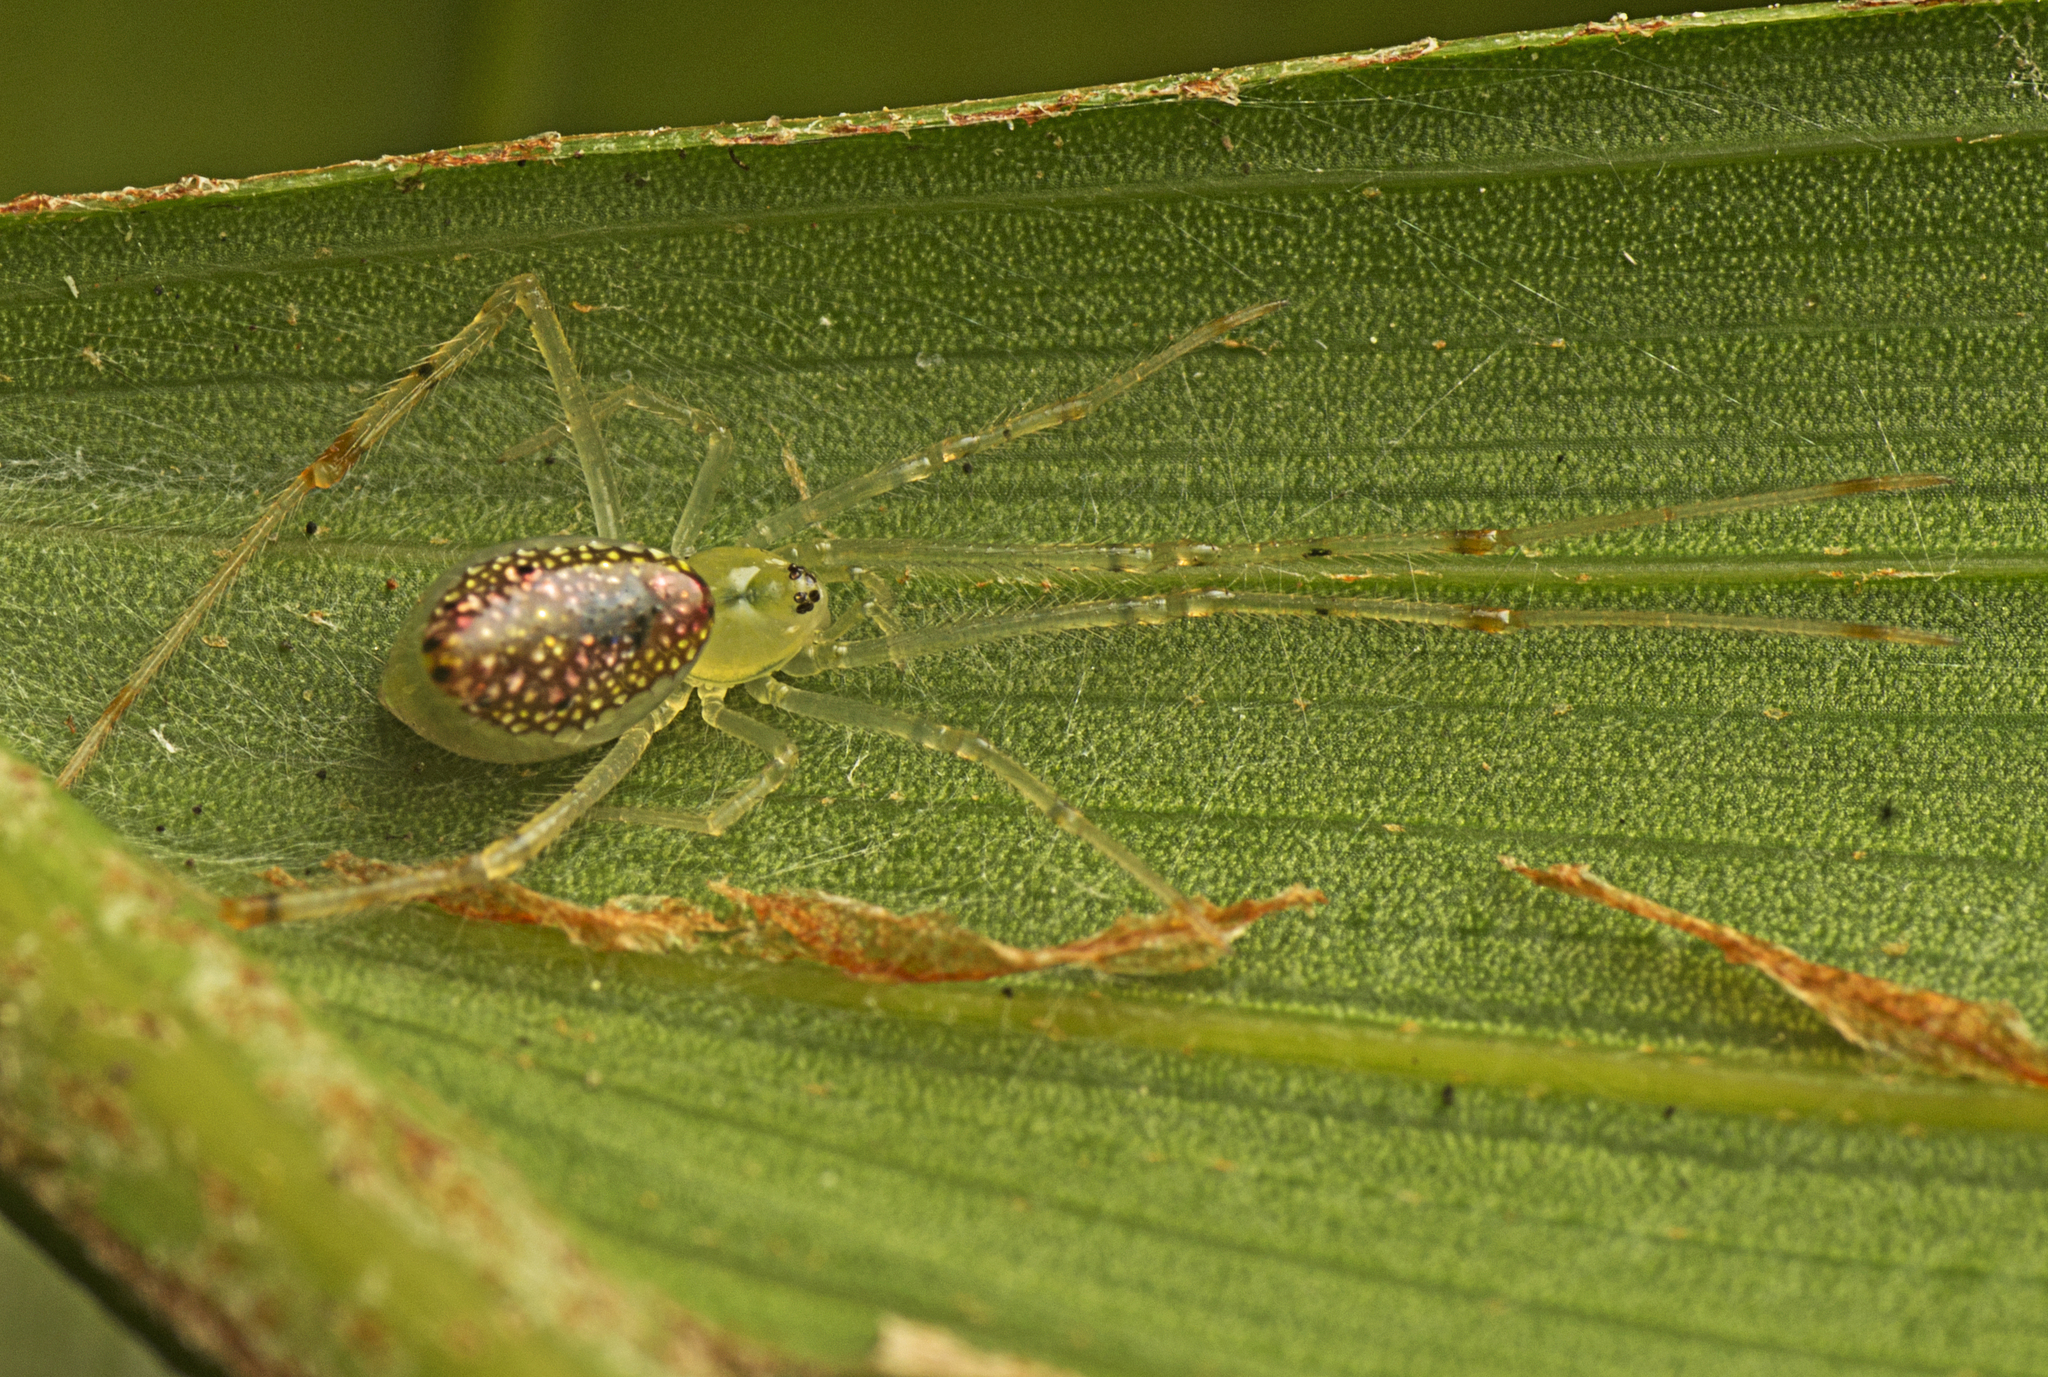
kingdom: Animalia
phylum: Arthropoda
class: Arachnida
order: Araneae
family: Theridiidae
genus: Thwaitesia
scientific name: Thwaitesia nigronodosa
